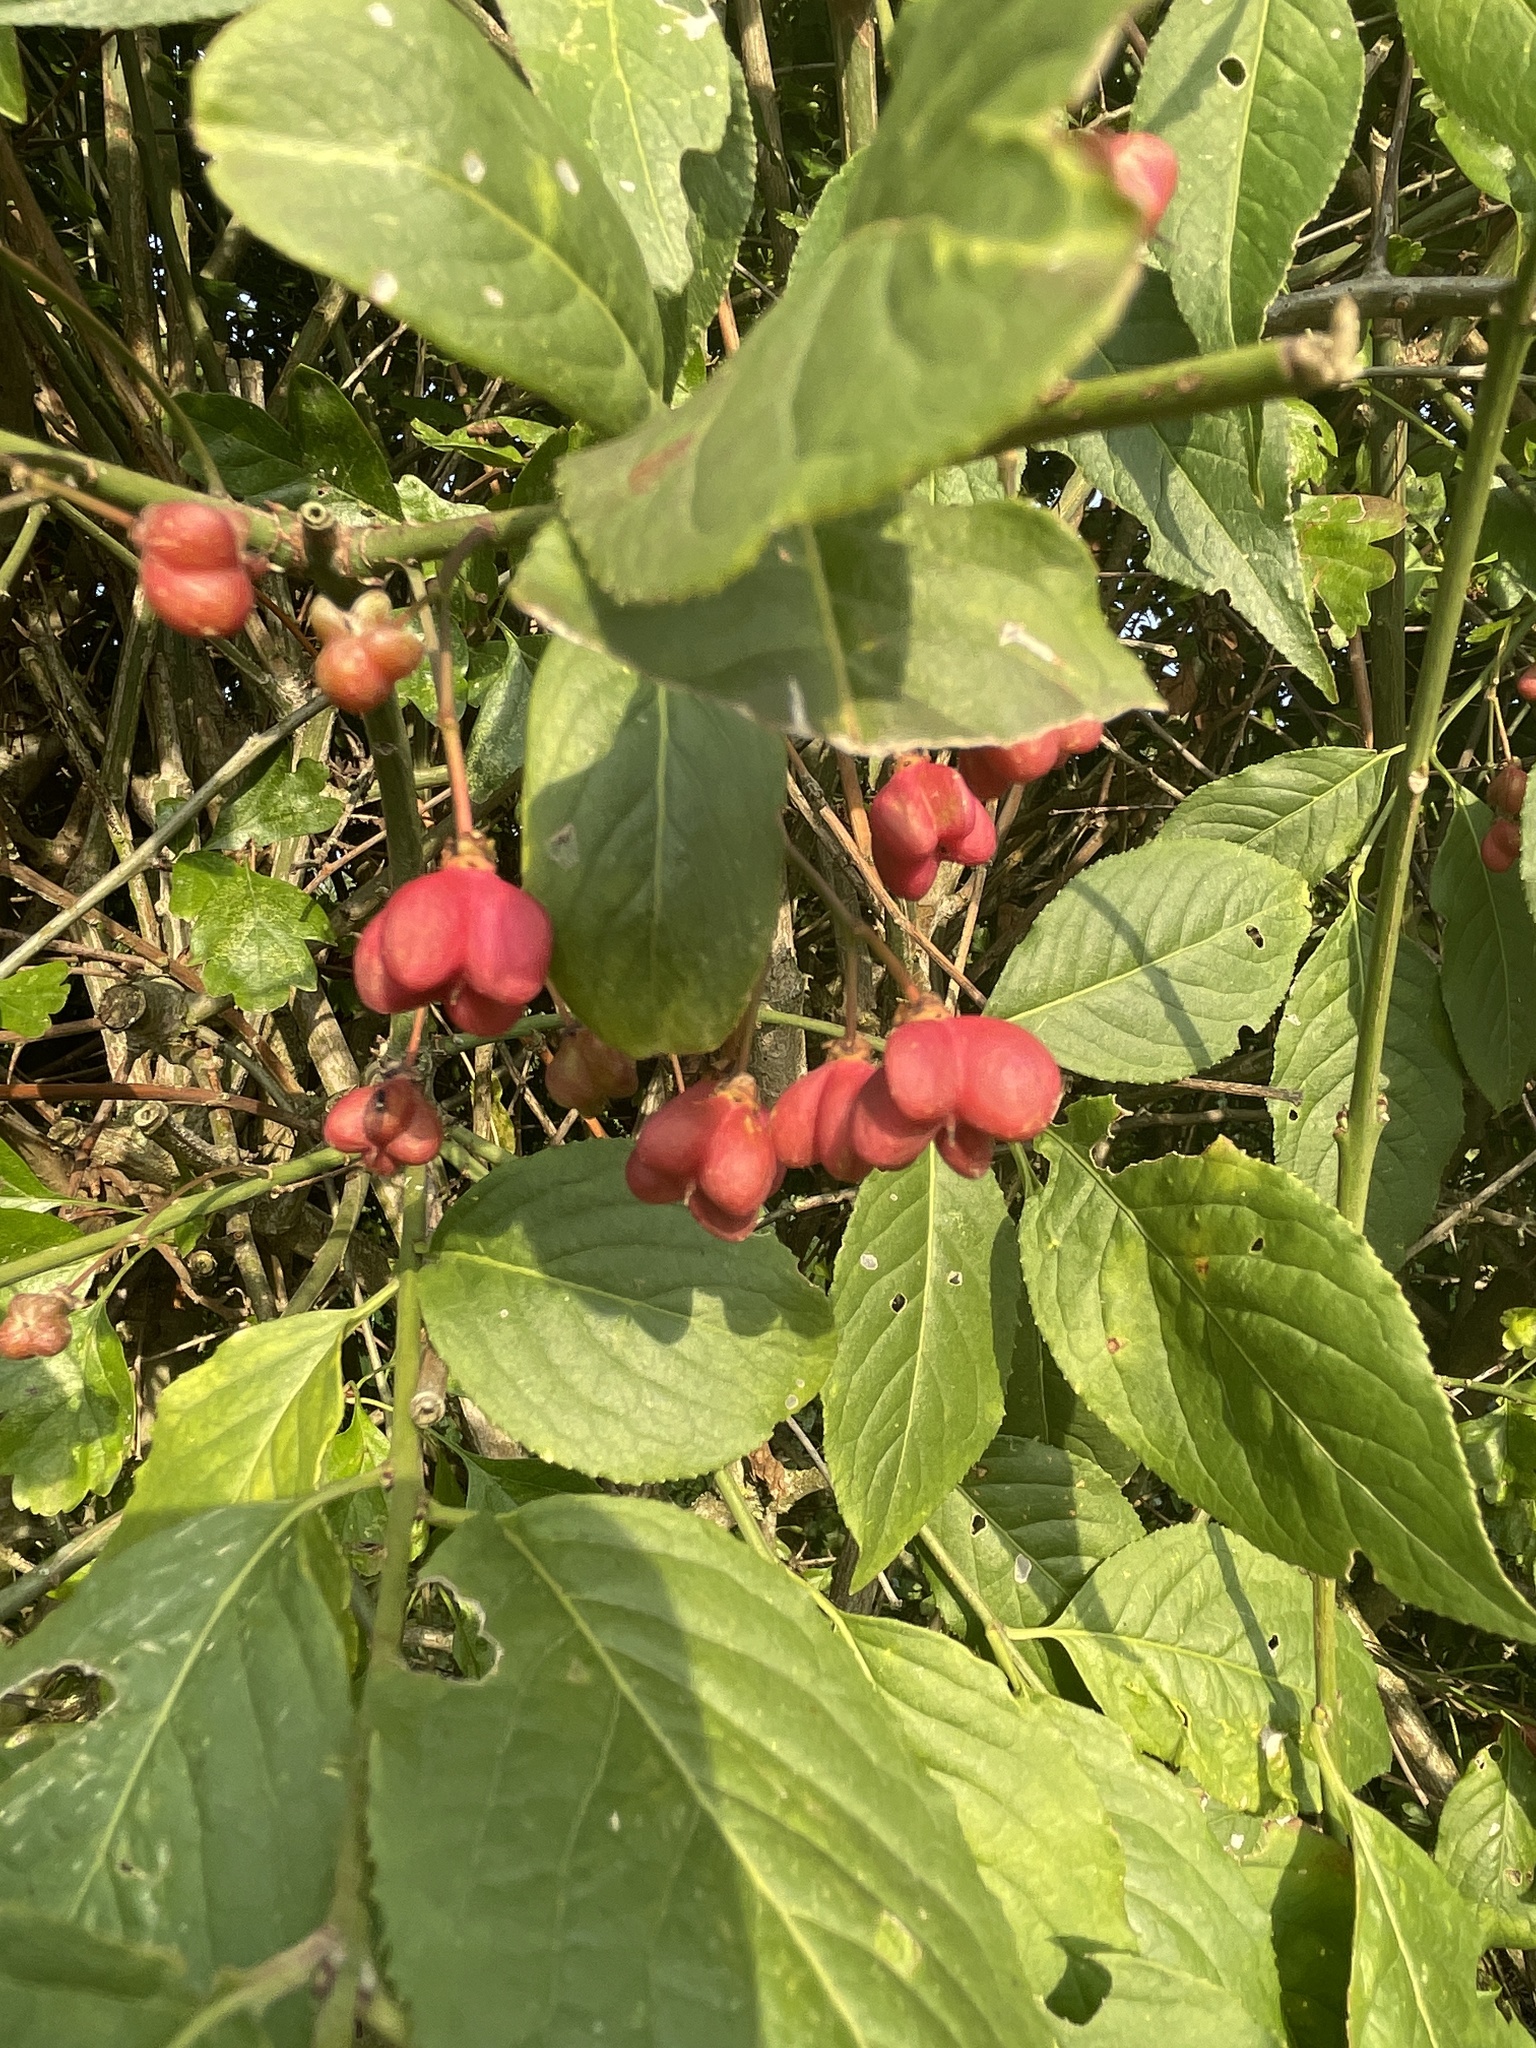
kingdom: Plantae
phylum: Tracheophyta
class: Magnoliopsida
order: Celastrales
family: Celastraceae
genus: Euonymus
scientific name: Euonymus europaeus
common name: Spindle
